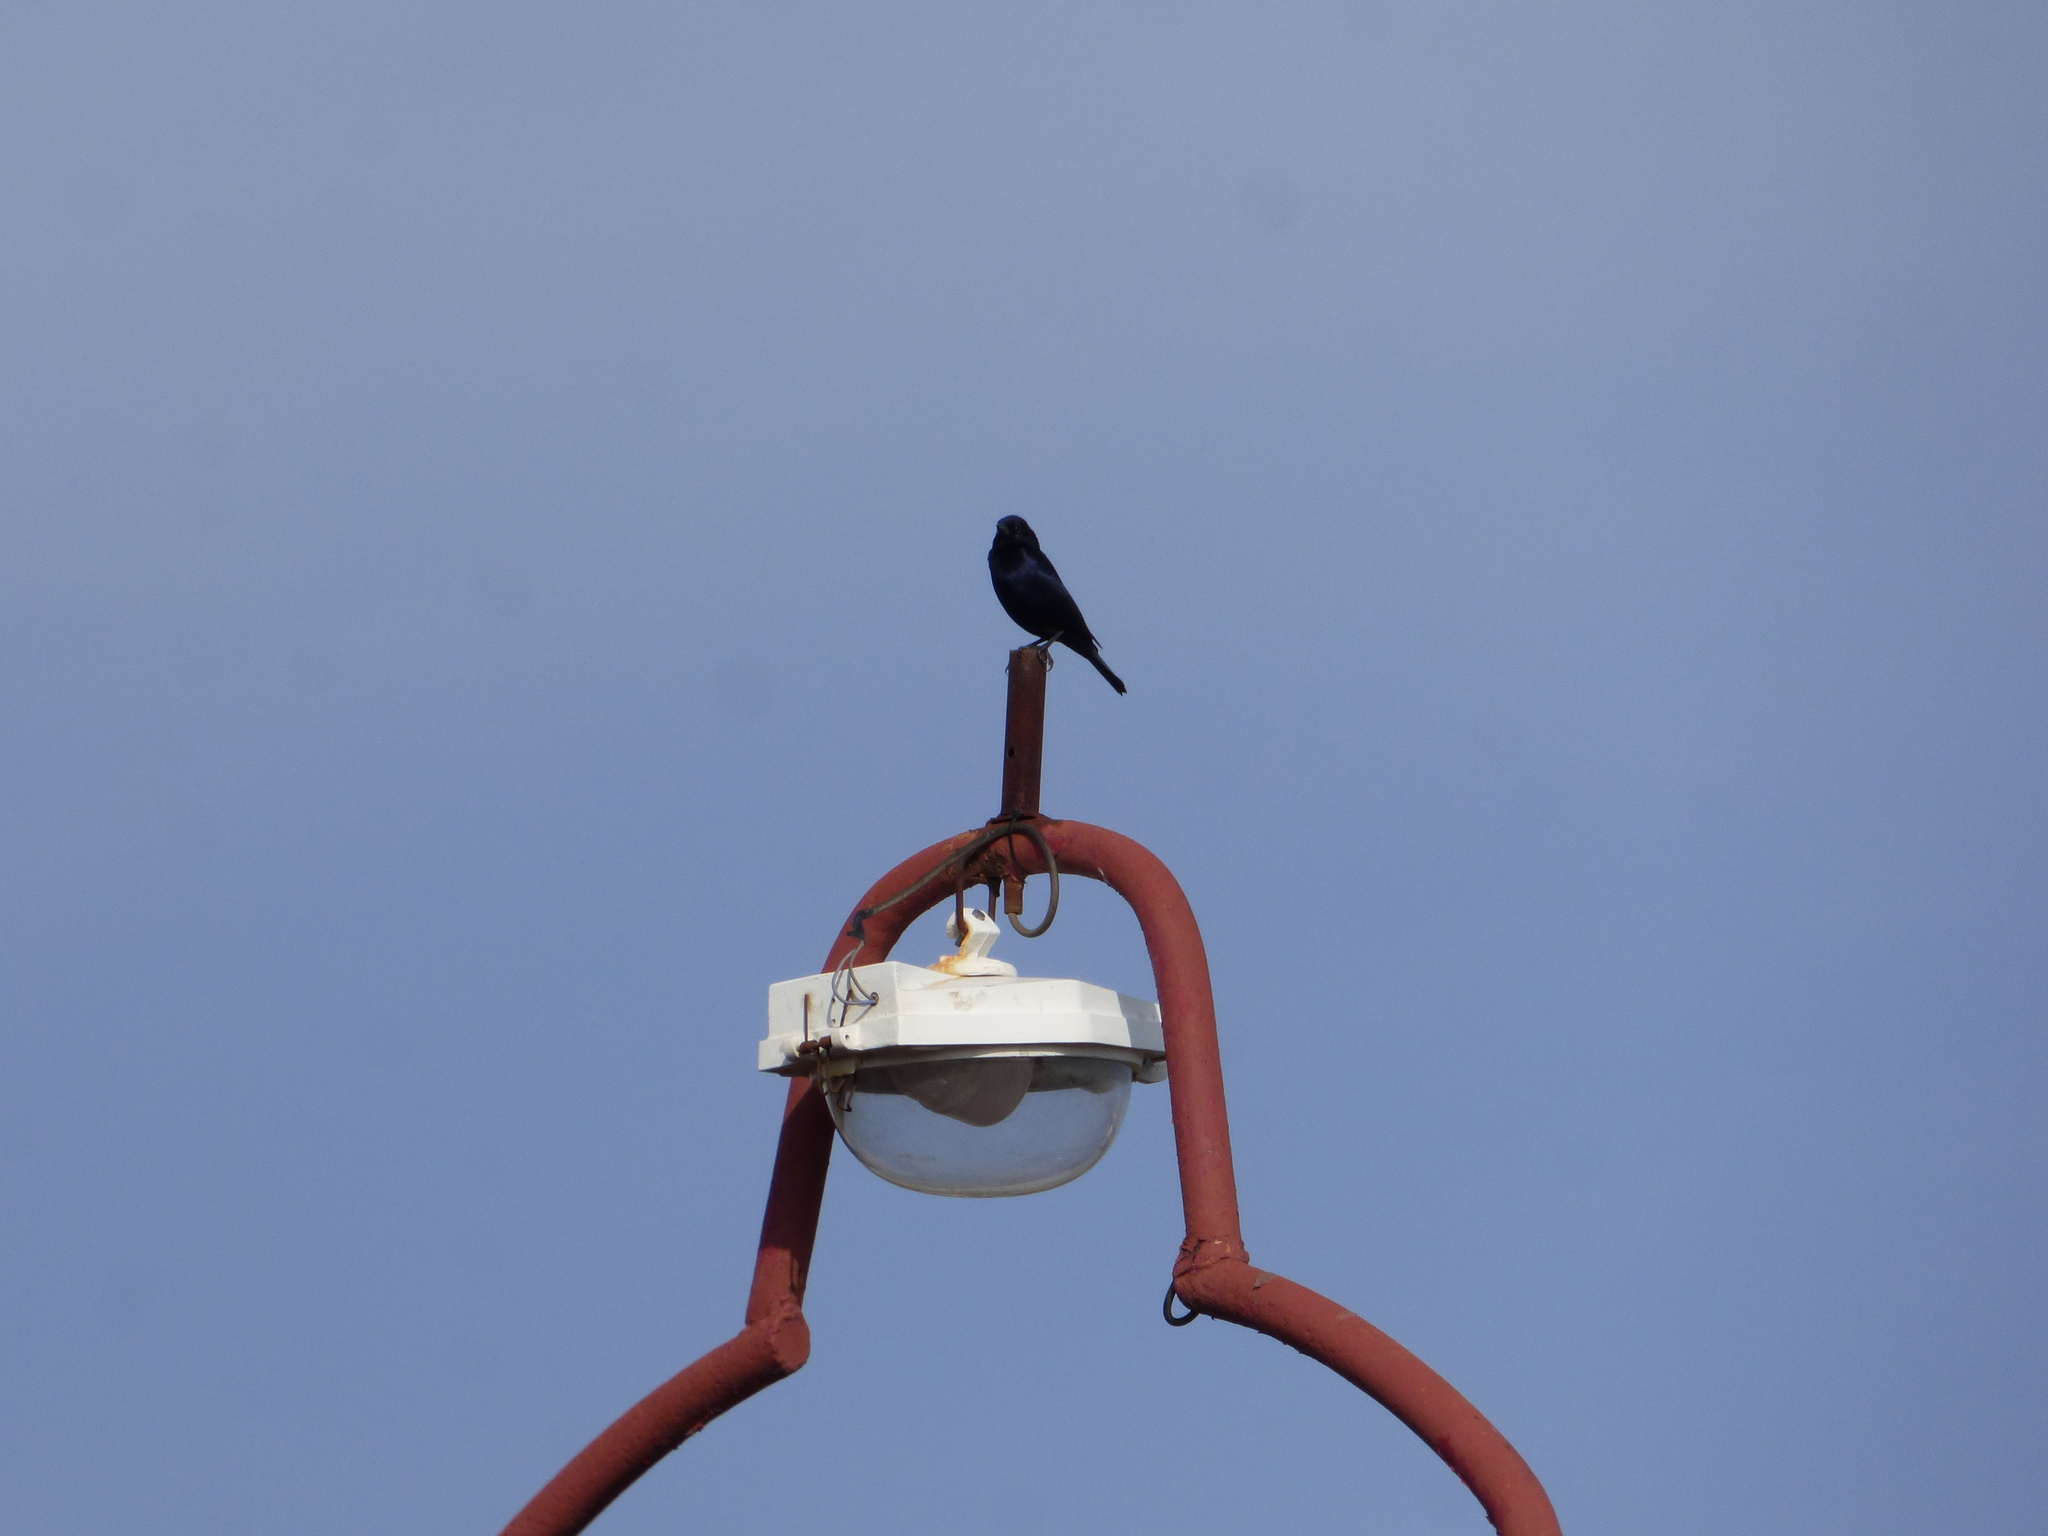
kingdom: Animalia
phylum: Chordata
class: Aves
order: Passeriformes
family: Icteridae
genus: Molothrus
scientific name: Molothrus bonariensis
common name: Shiny cowbird
